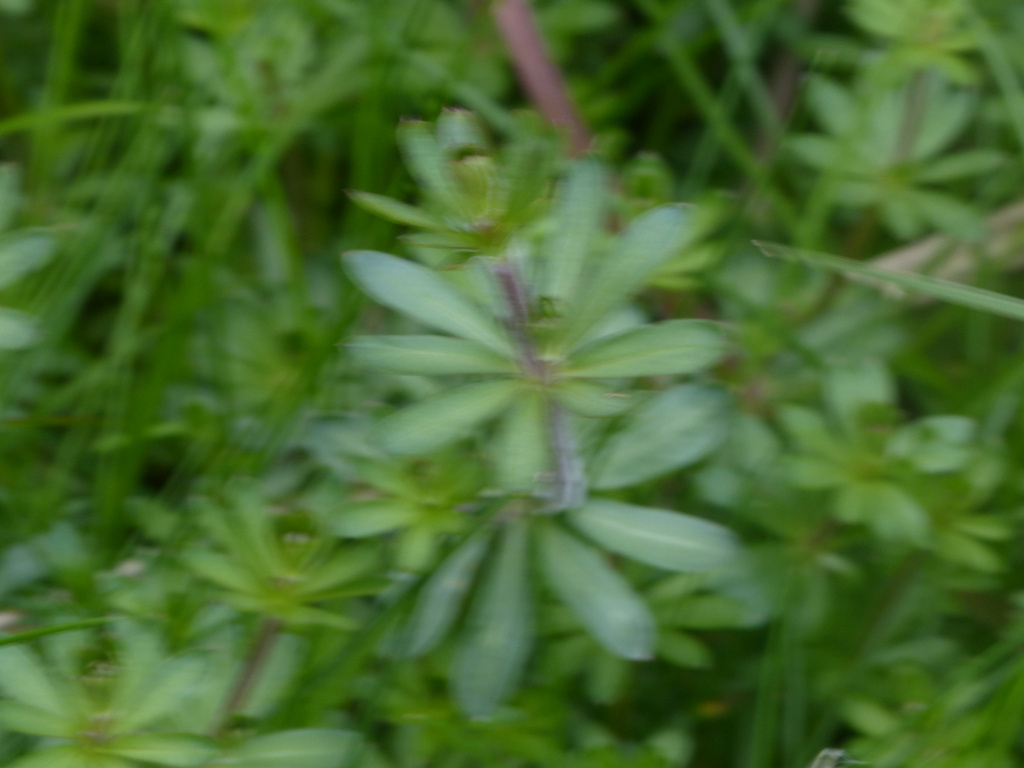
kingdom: Plantae
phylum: Tracheophyta
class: Magnoliopsida
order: Gentianales
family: Rubiaceae
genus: Galium
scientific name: Galium mollugo
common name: Hedge bedstraw
